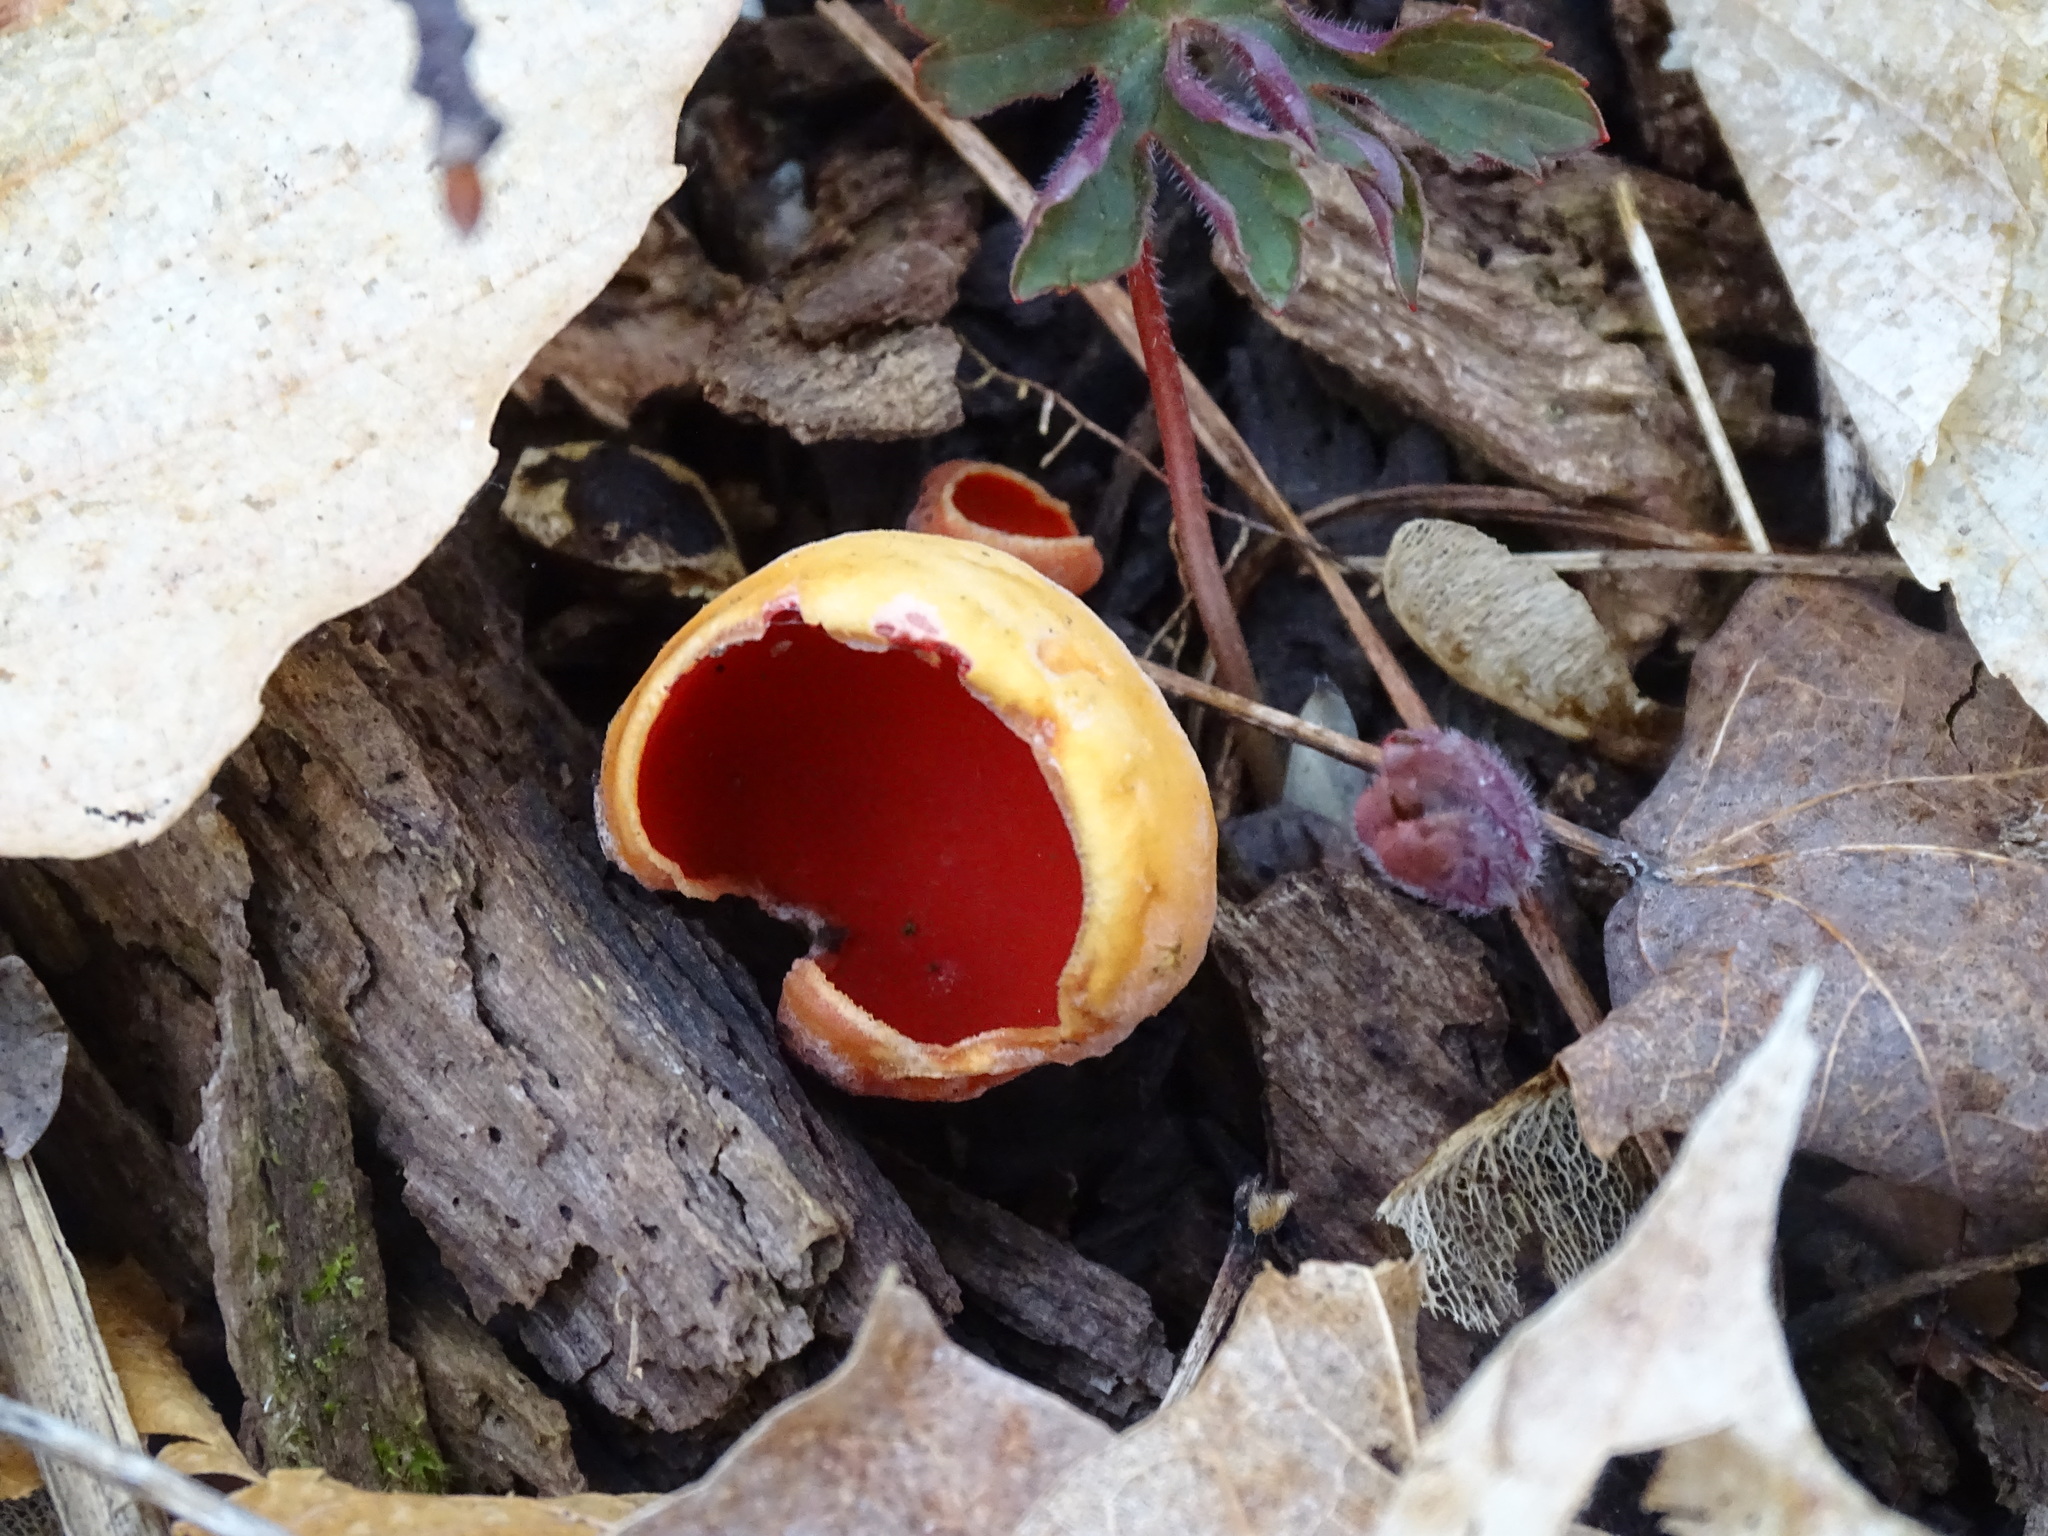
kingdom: Fungi
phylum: Ascomycota
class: Pezizomycetes
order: Pezizales
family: Sarcoscyphaceae
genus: Sarcoscypha
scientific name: Sarcoscypha
